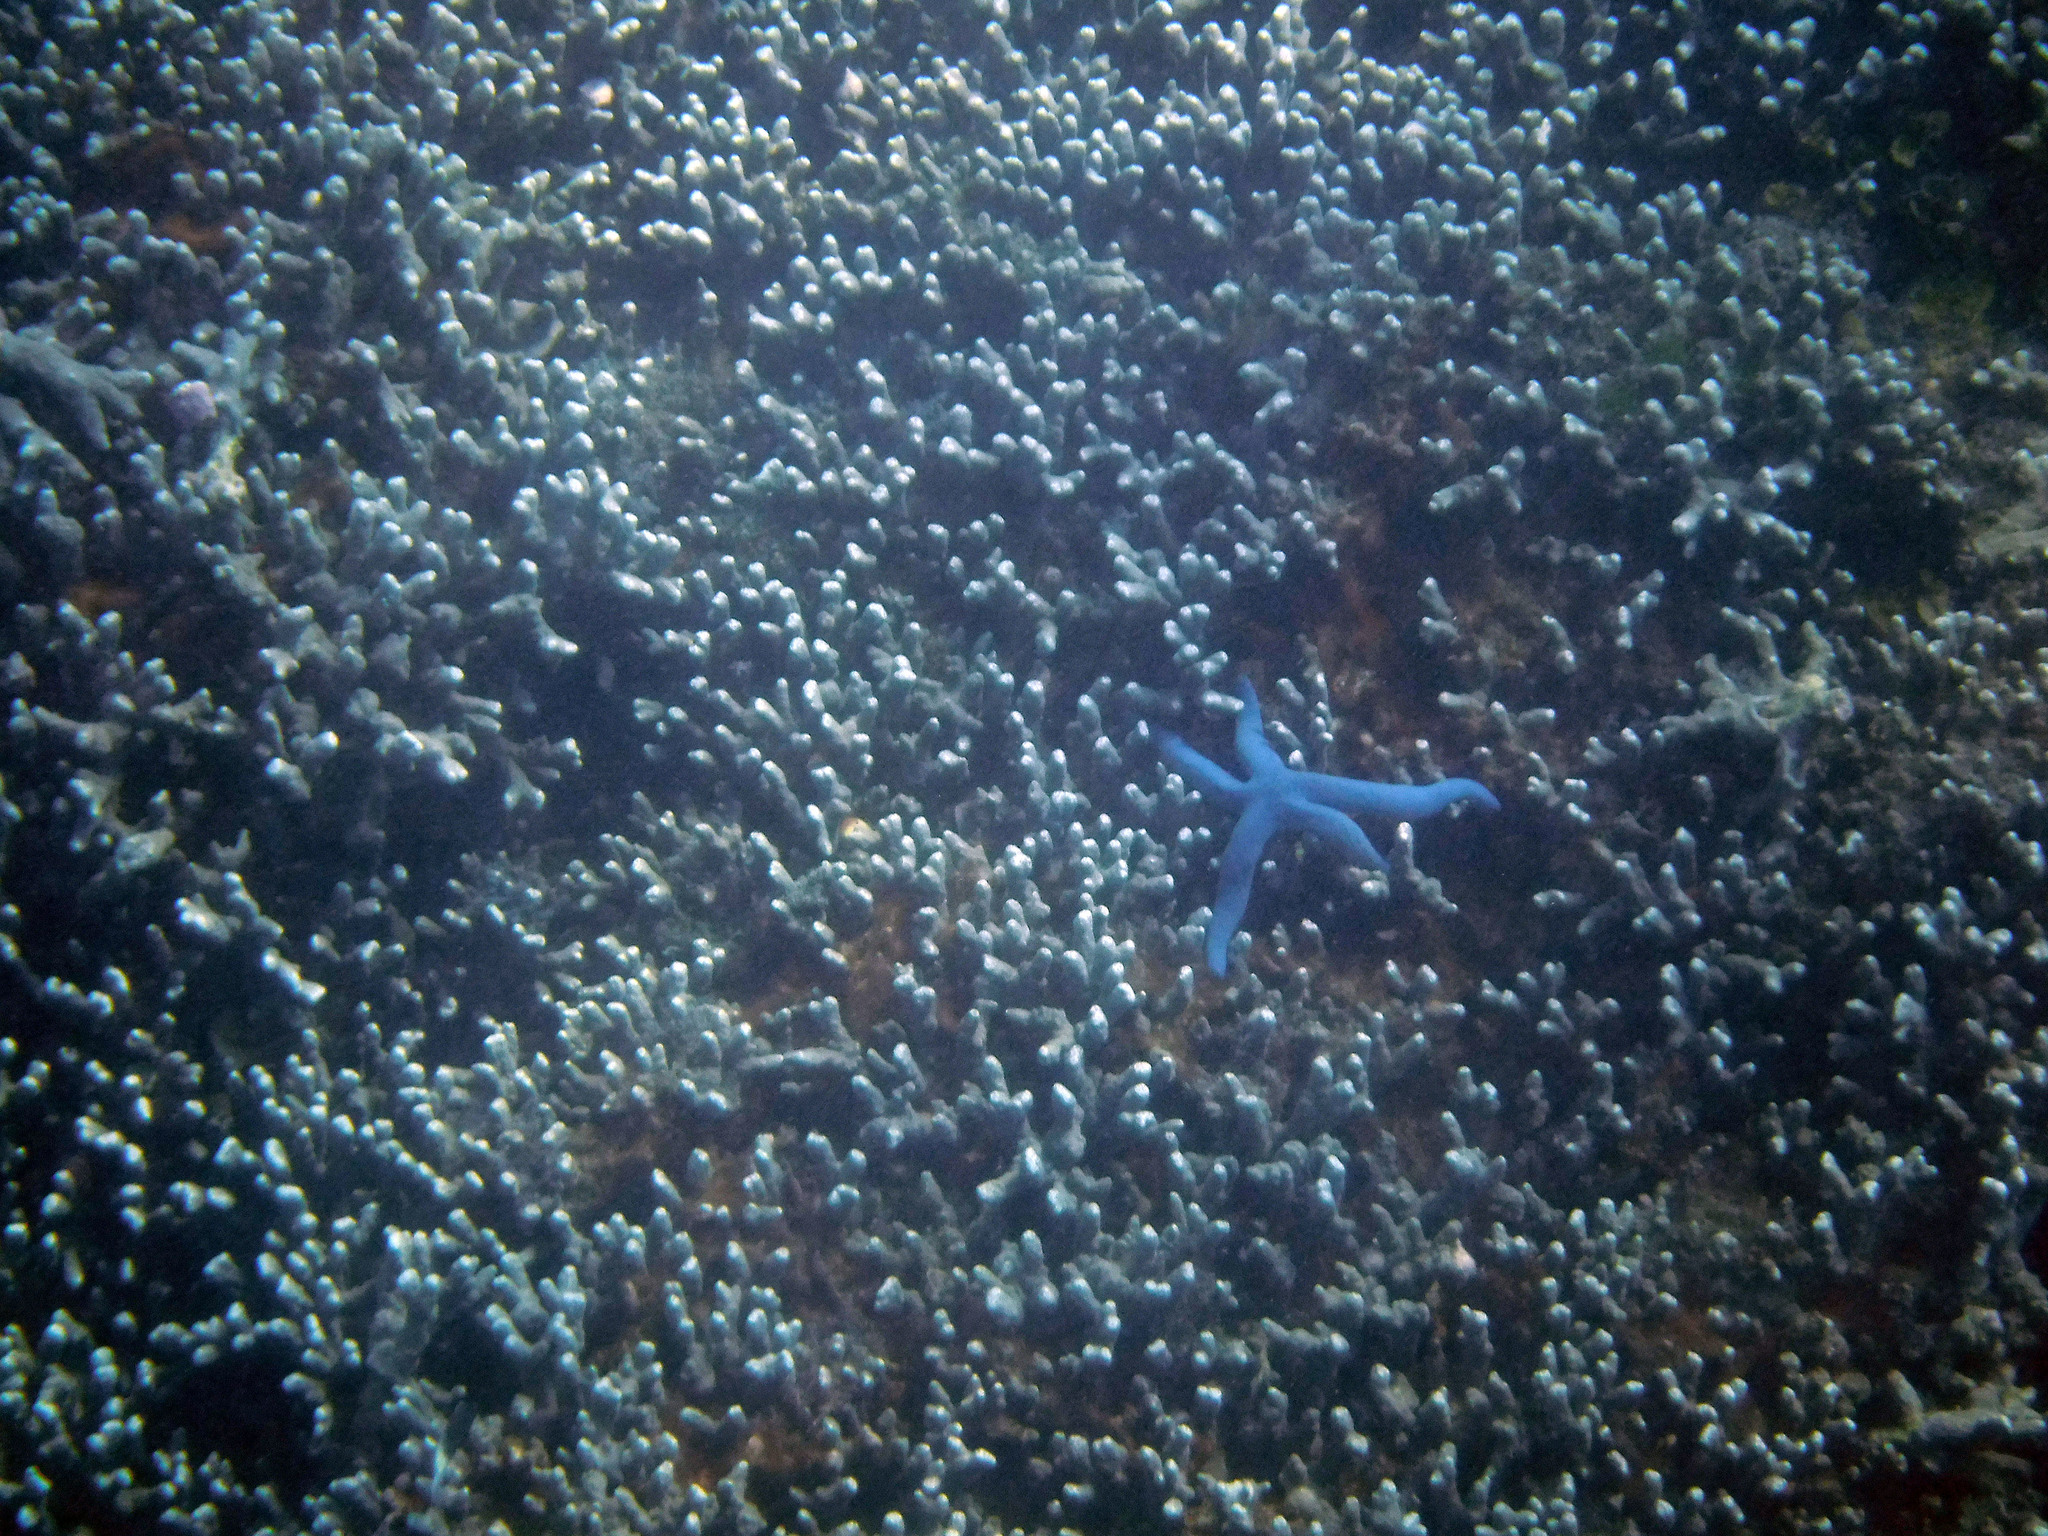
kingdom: Animalia
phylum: Echinodermata
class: Asteroidea
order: Valvatida
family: Ophidiasteridae
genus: Linckia
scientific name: Linckia laevigata
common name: Azure sea star
